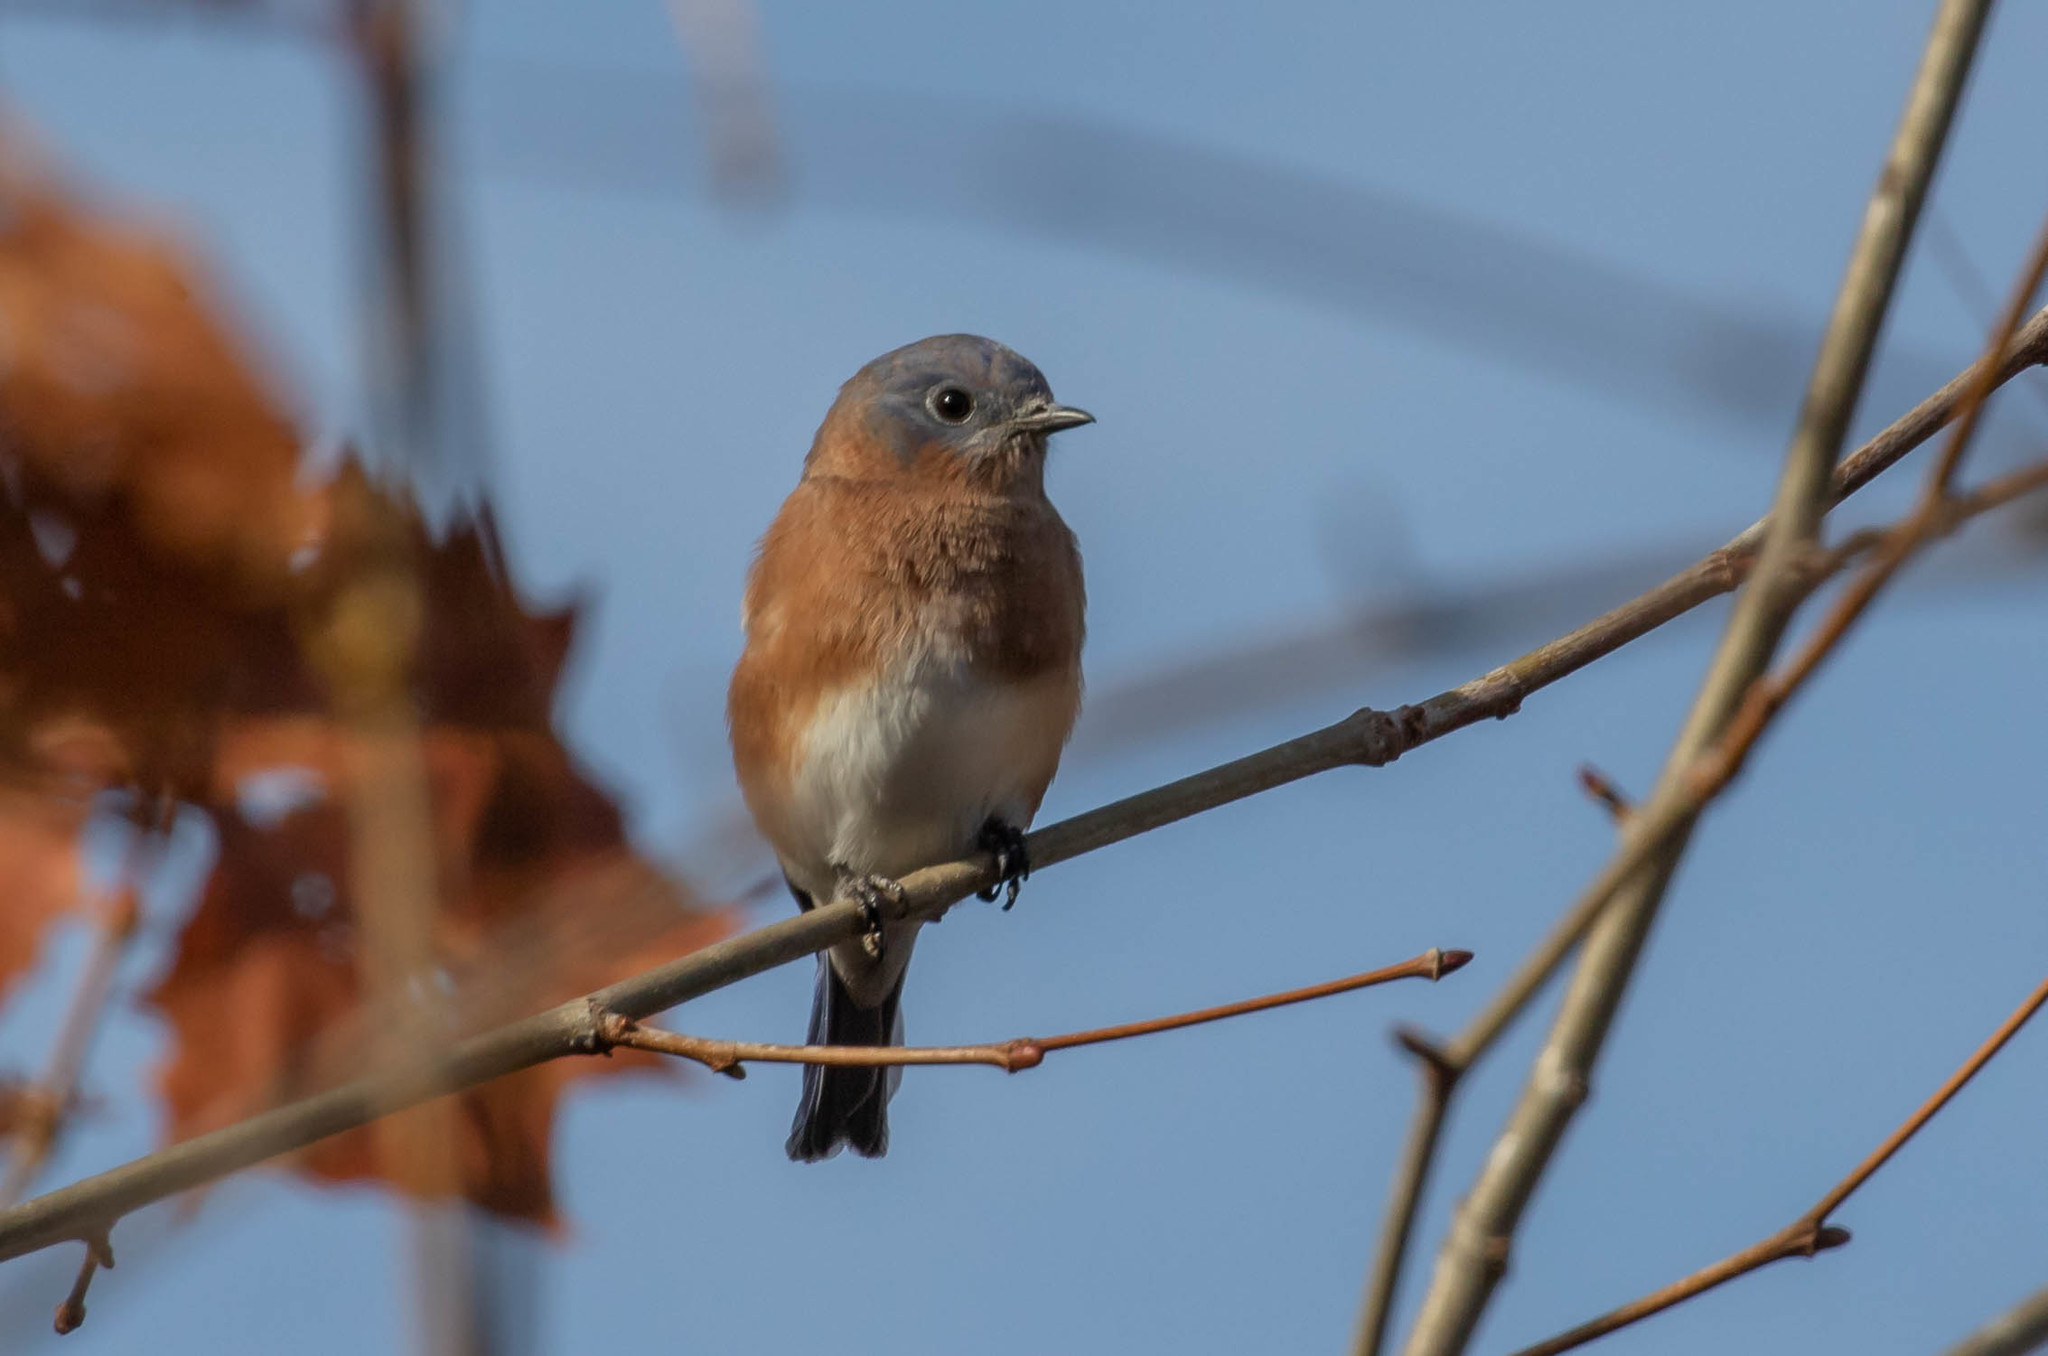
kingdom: Animalia
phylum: Chordata
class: Aves
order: Passeriformes
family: Turdidae
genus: Sialia
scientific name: Sialia sialis
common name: Eastern bluebird
